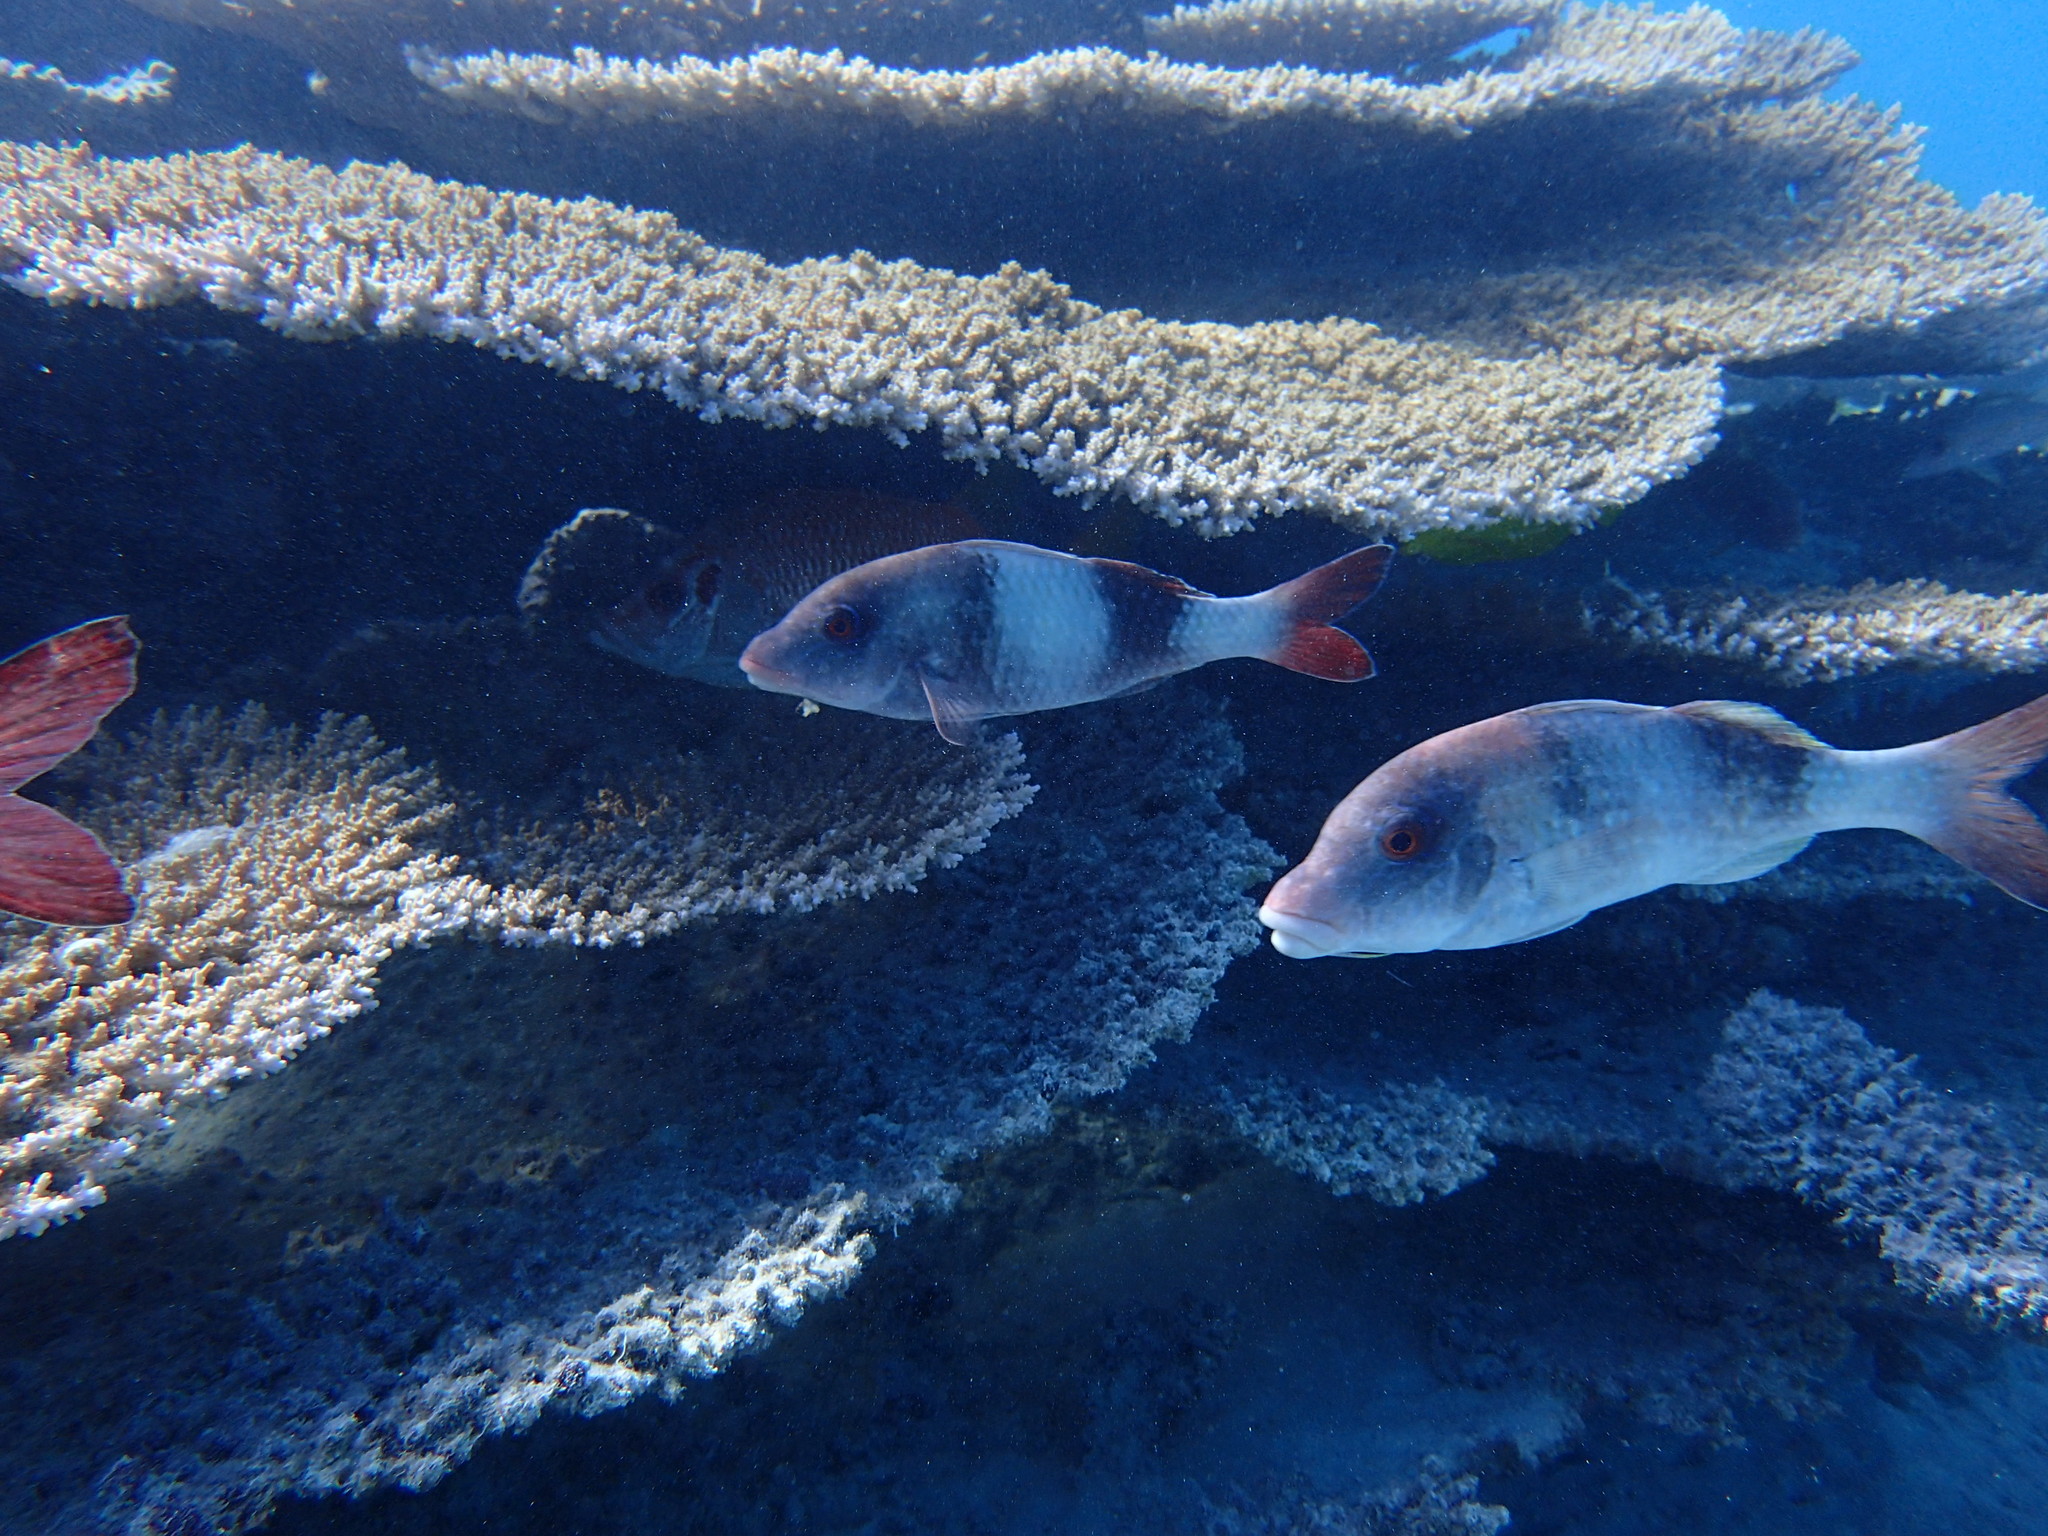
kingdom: Animalia
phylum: Chordata
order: Perciformes
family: Mullidae
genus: Parupeneus
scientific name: Parupeneus insularis
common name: Doublebar goatfish
